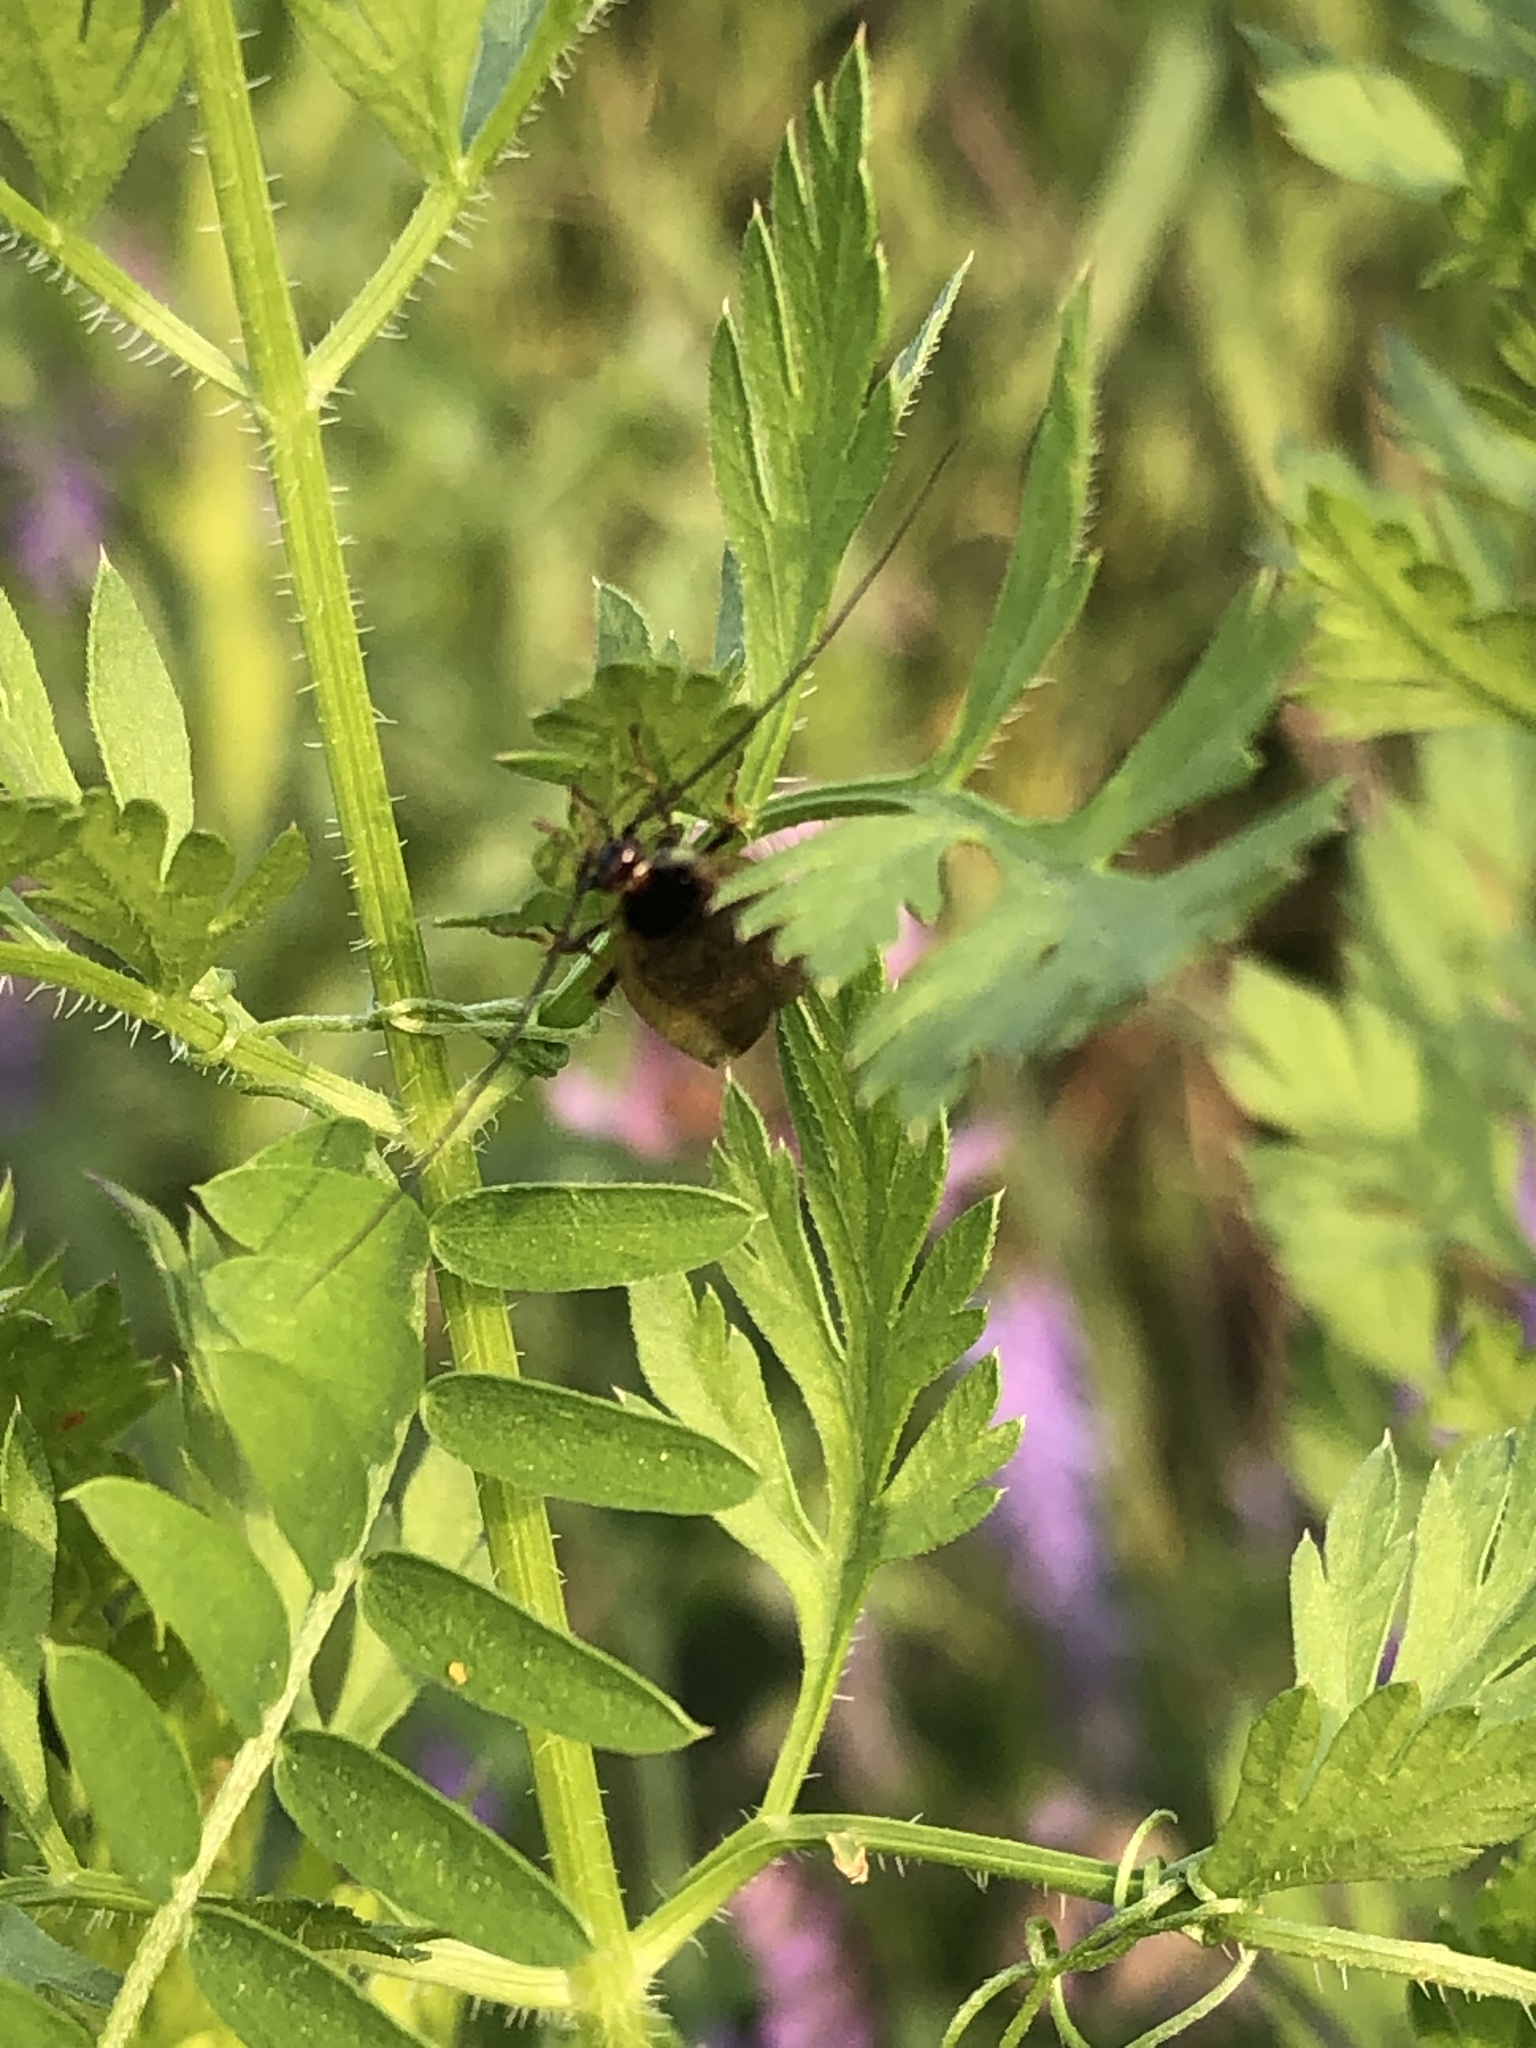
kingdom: Animalia
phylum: Arthropoda
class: Insecta
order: Blattodea
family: Ectobiidae
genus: Ectobius
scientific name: Ectobius lapponicus
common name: Dusky cockroach
